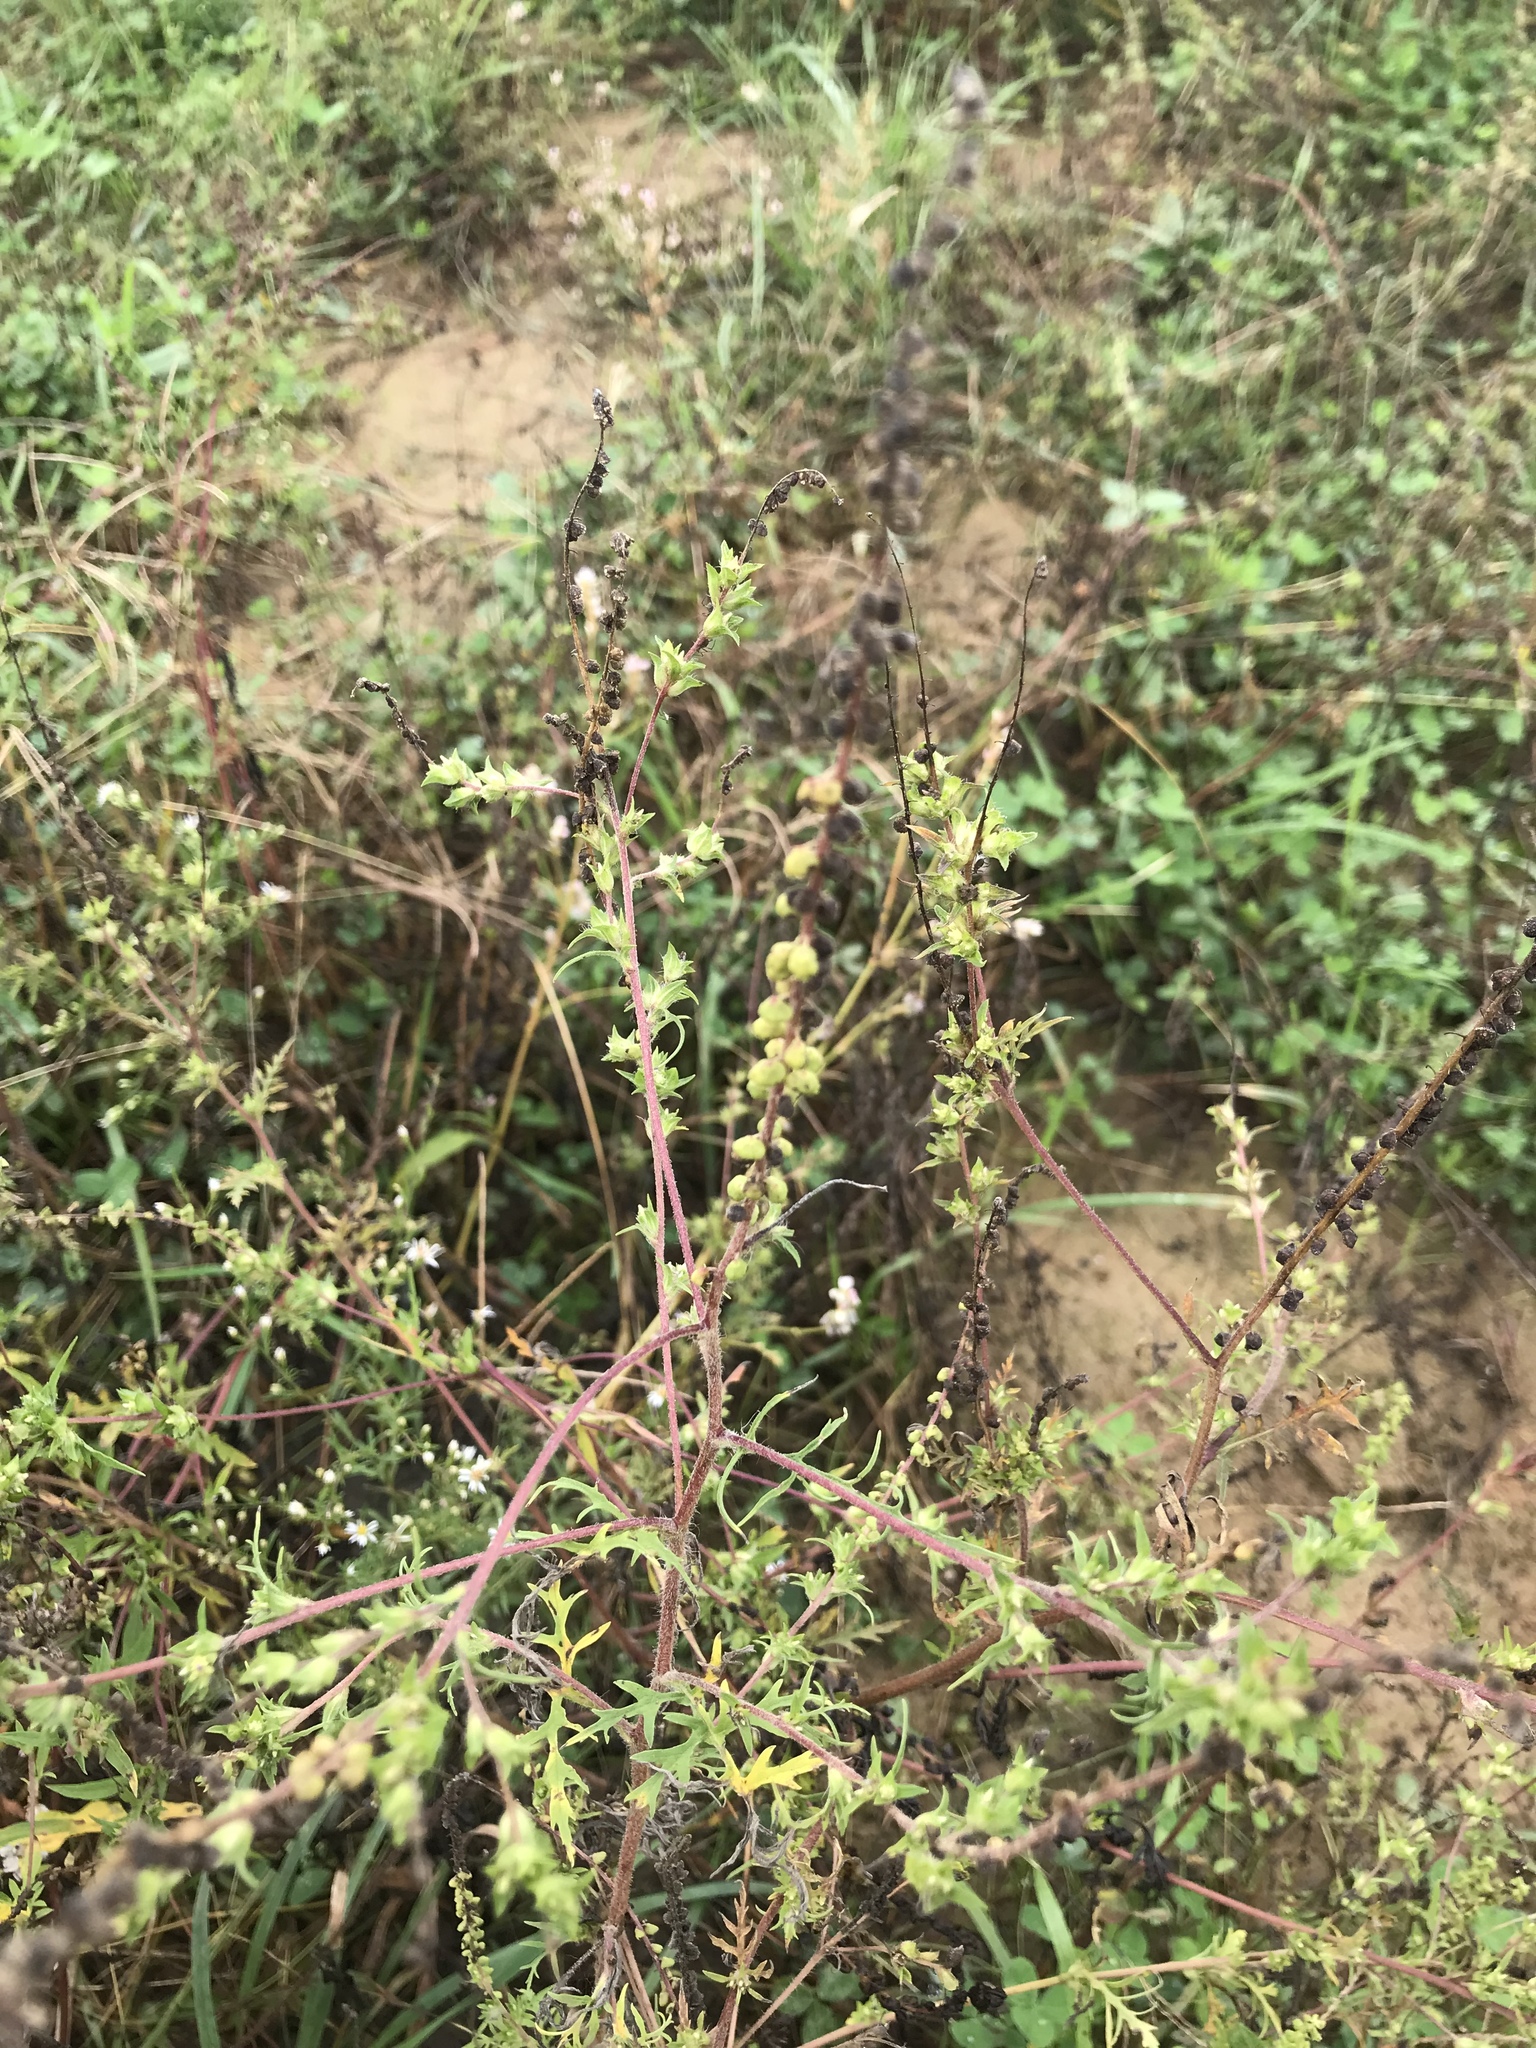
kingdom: Plantae
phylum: Tracheophyta
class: Magnoliopsida
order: Asterales
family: Asteraceae
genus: Ambrosia
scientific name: Ambrosia artemisiifolia
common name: Annual ragweed
